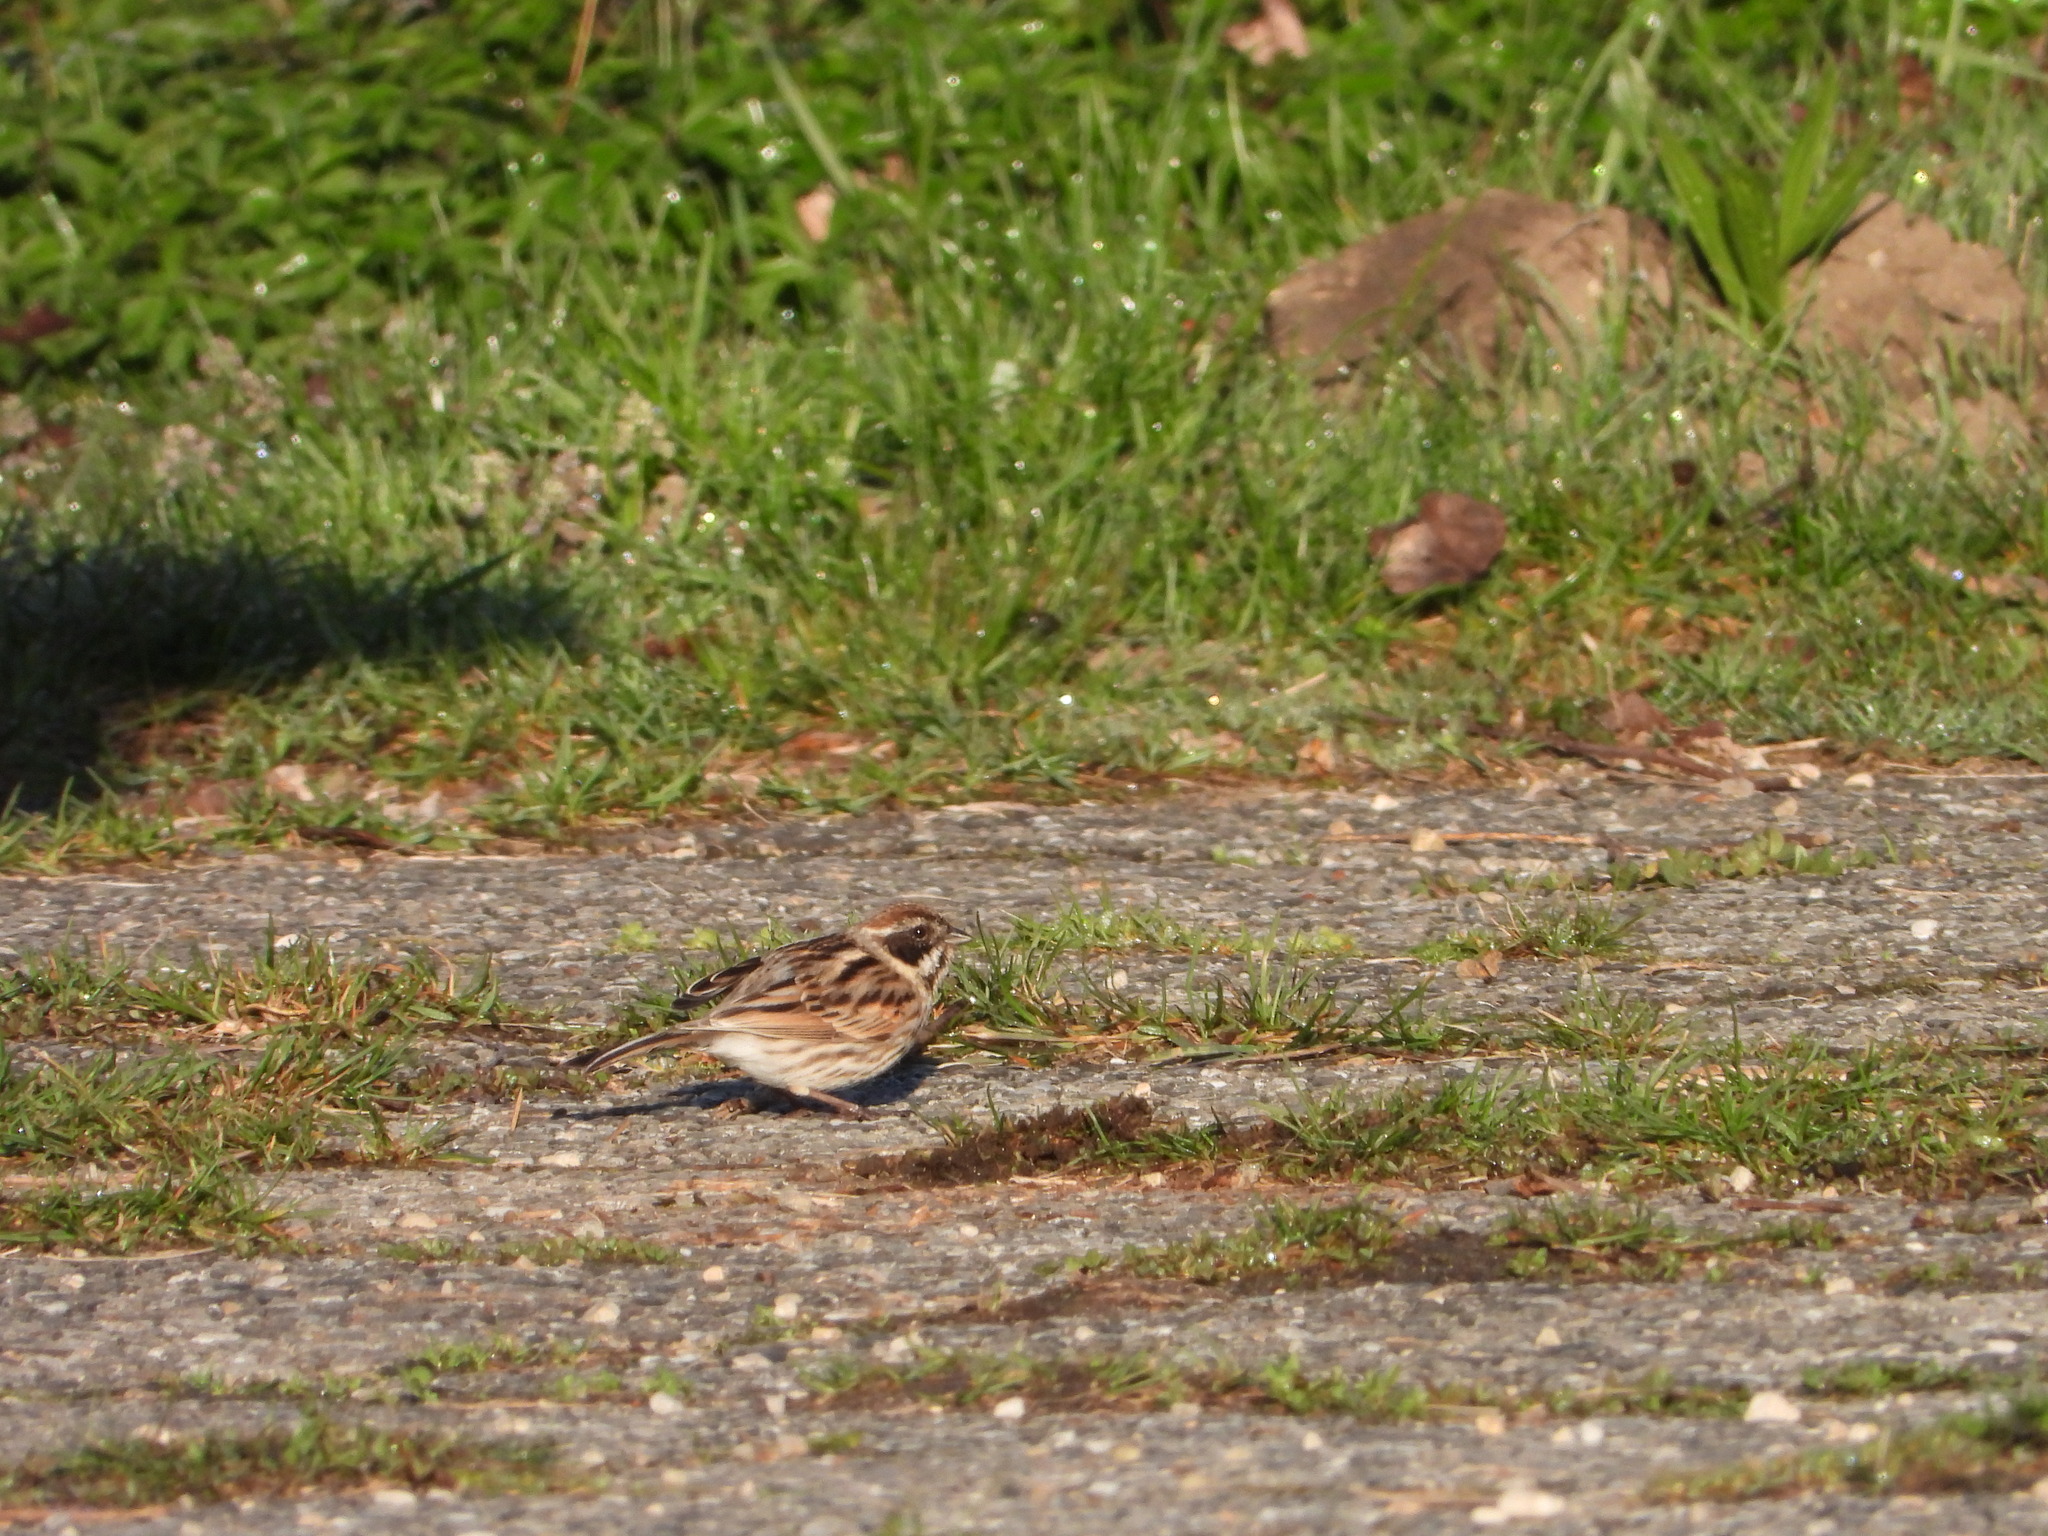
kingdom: Animalia
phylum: Chordata
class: Aves
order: Passeriformes
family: Emberizidae
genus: Emberiza
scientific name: Emberiza schoeniclus
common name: Reed bunting
